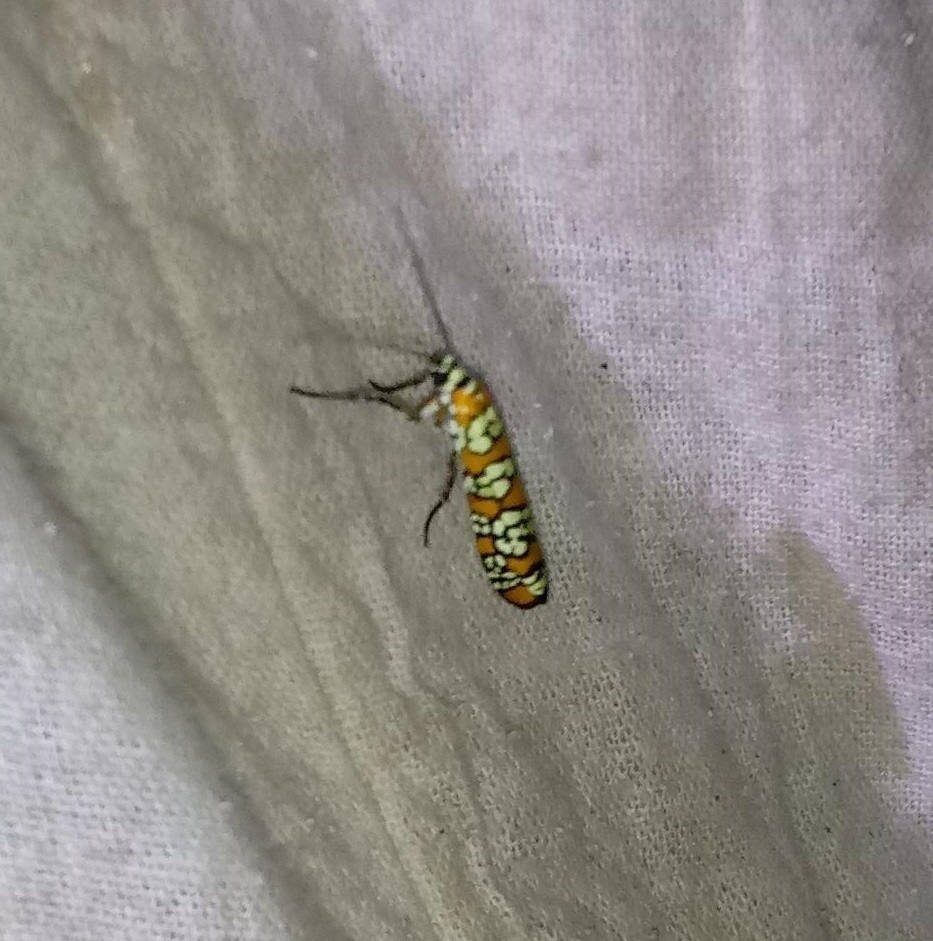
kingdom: Animalia
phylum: Arthropoda
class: Insecta
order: Lepidoptera
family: Attevidae
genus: Atteva
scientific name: Atteva punctella
